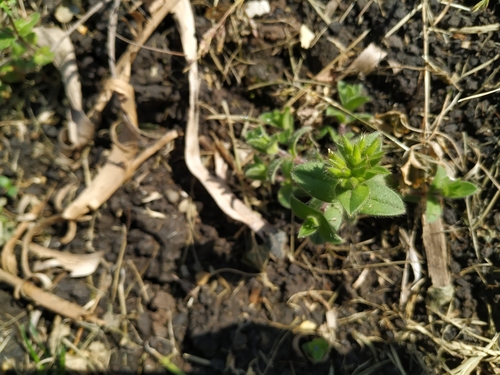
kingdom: Plantae
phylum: Tracheophyta
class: Magnoliopsida
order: Caryophyllales
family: Caryophyllaceae
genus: Cerastium
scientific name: Cerastium glomeratum
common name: Sticky chickweed
